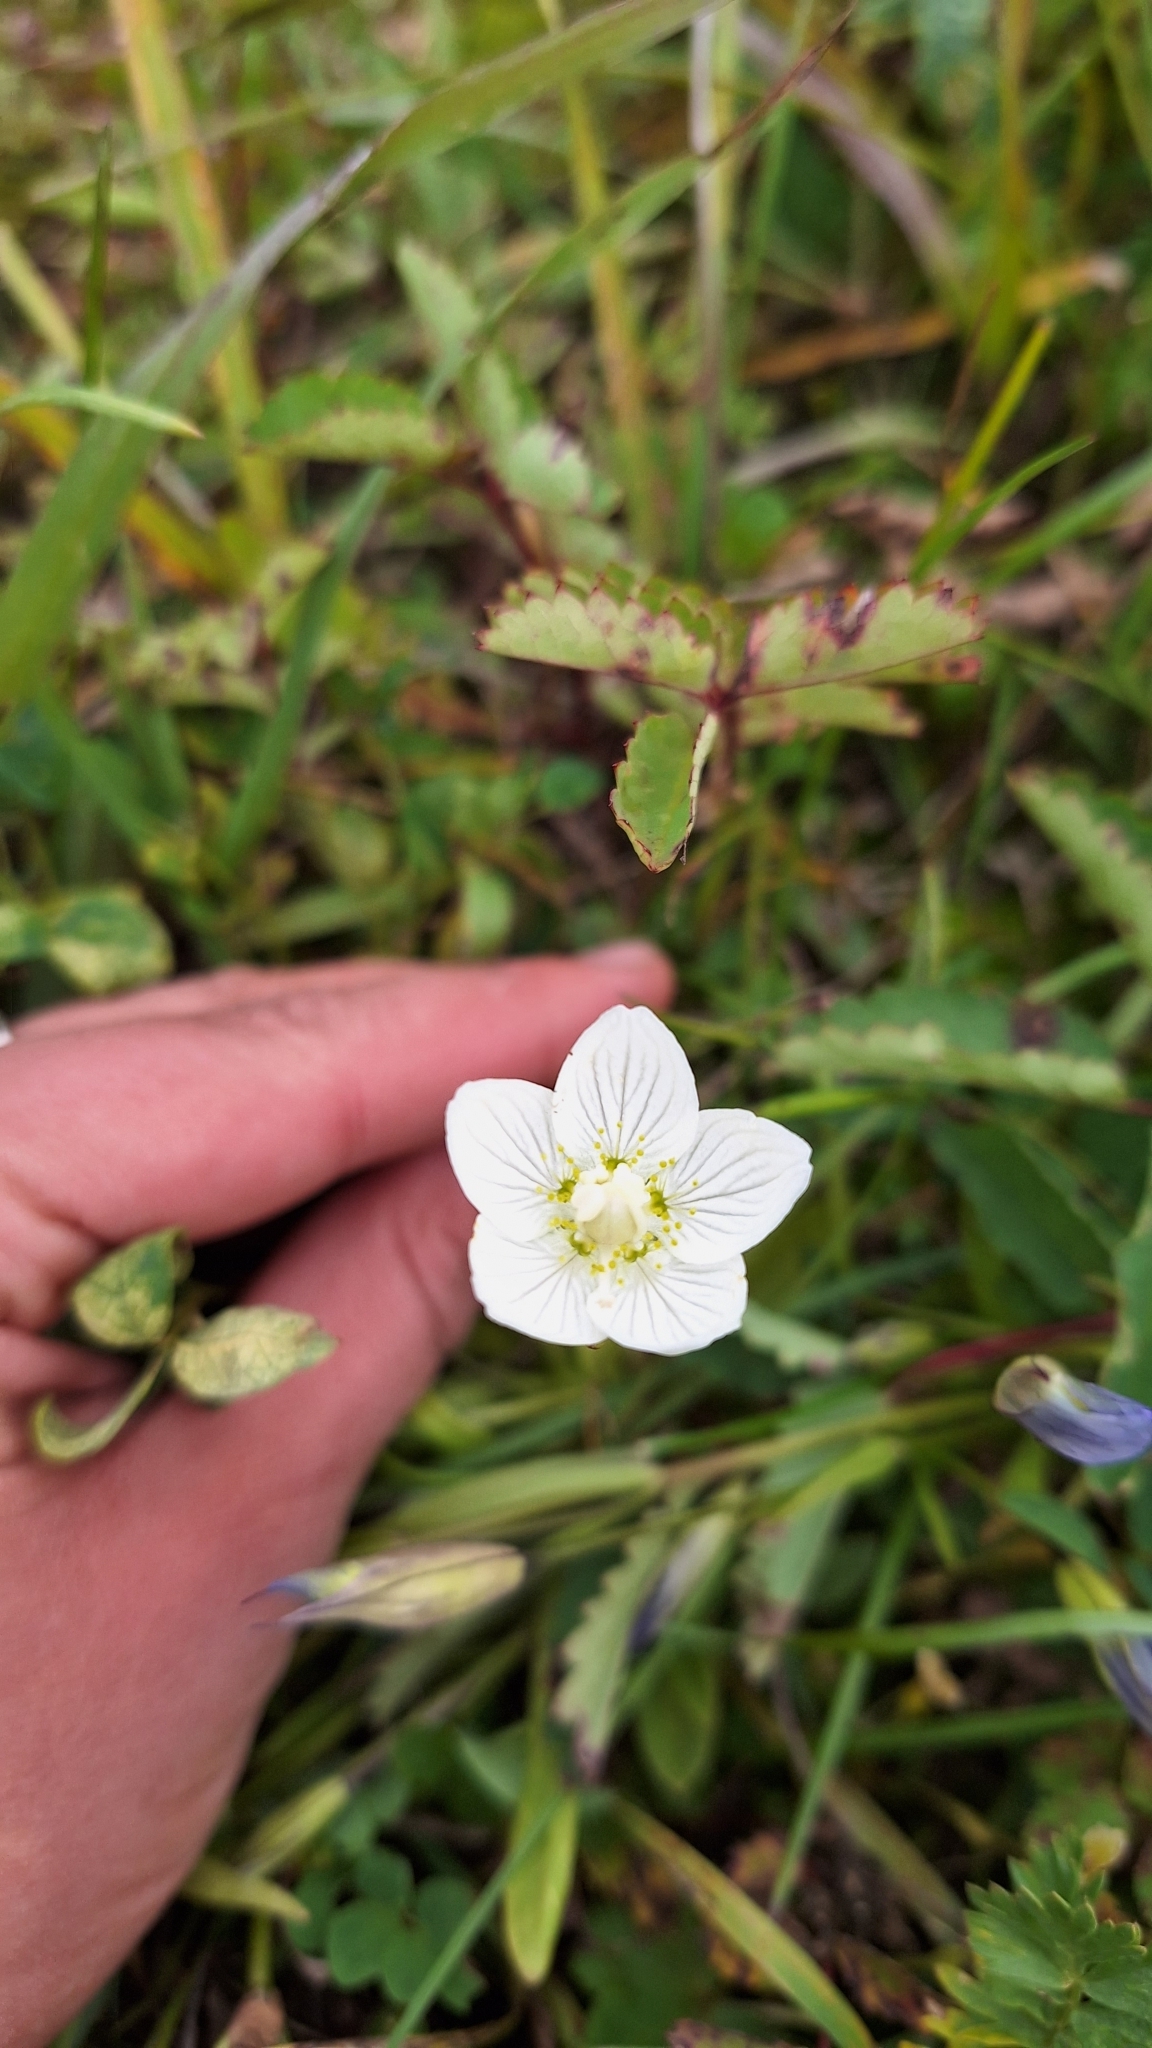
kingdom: Plantae
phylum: Tracheophyta
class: Magnoliopsida
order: Celastrales
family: Parnassiaceae
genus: Parnassia
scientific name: Parnassia palustris
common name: Grass-of-parnassus
